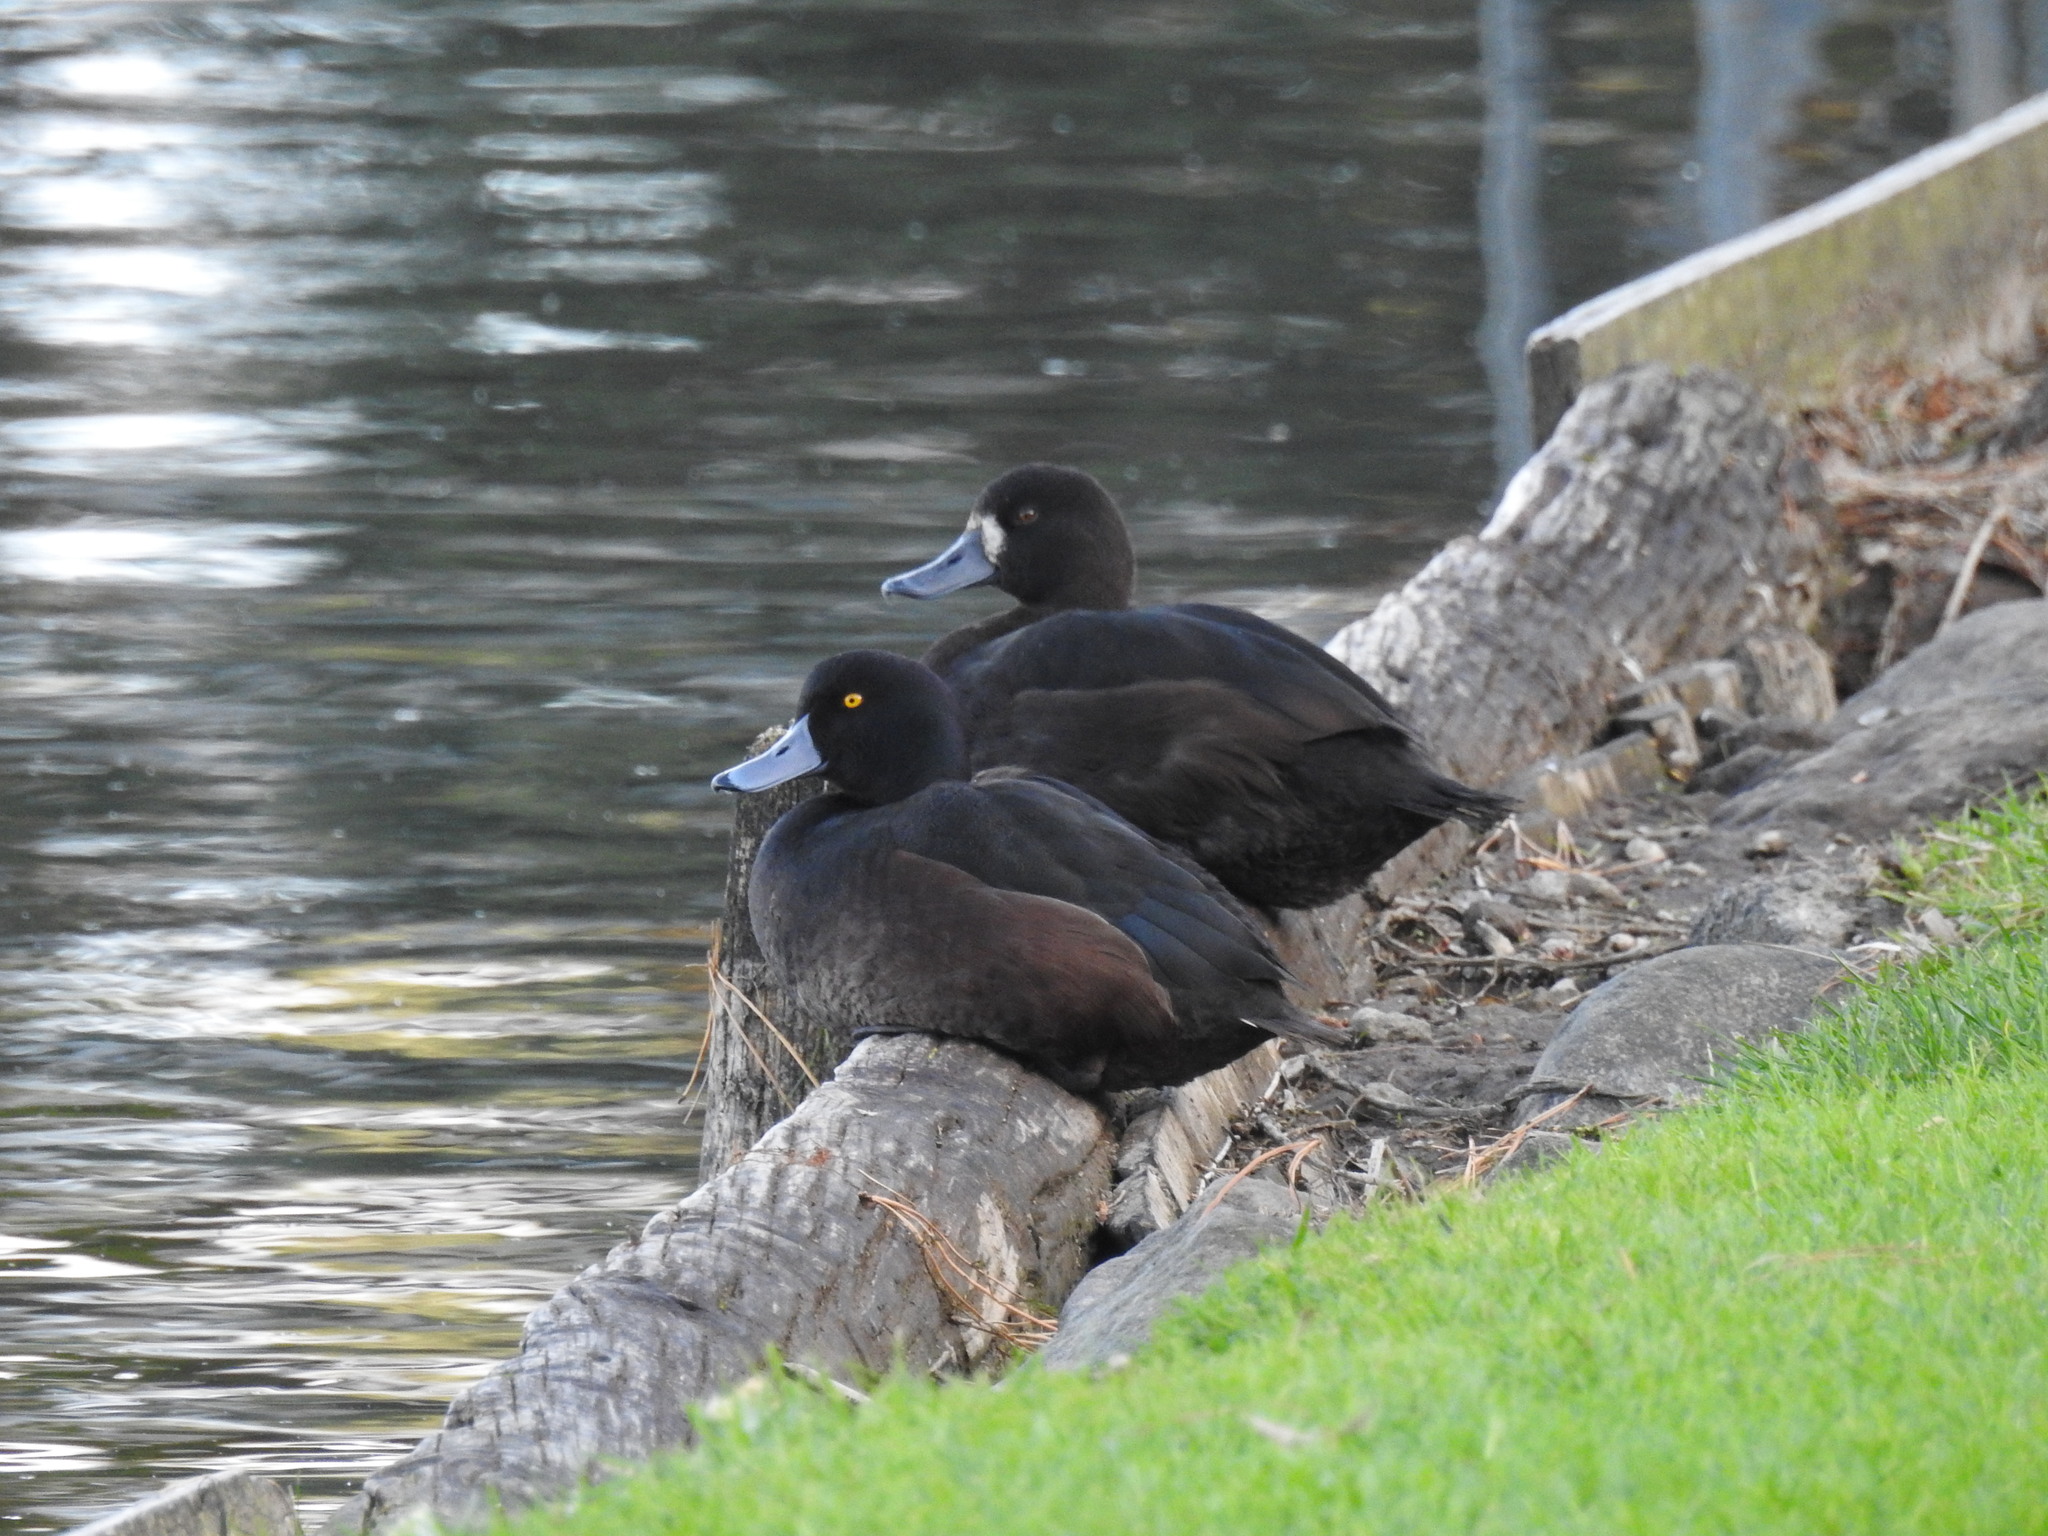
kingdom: Animalia
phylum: Chordata
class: Aves
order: Anseriformes
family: Anatidae
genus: Aythya
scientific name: Aythya novaeseelandiae
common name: New zealand scaup
